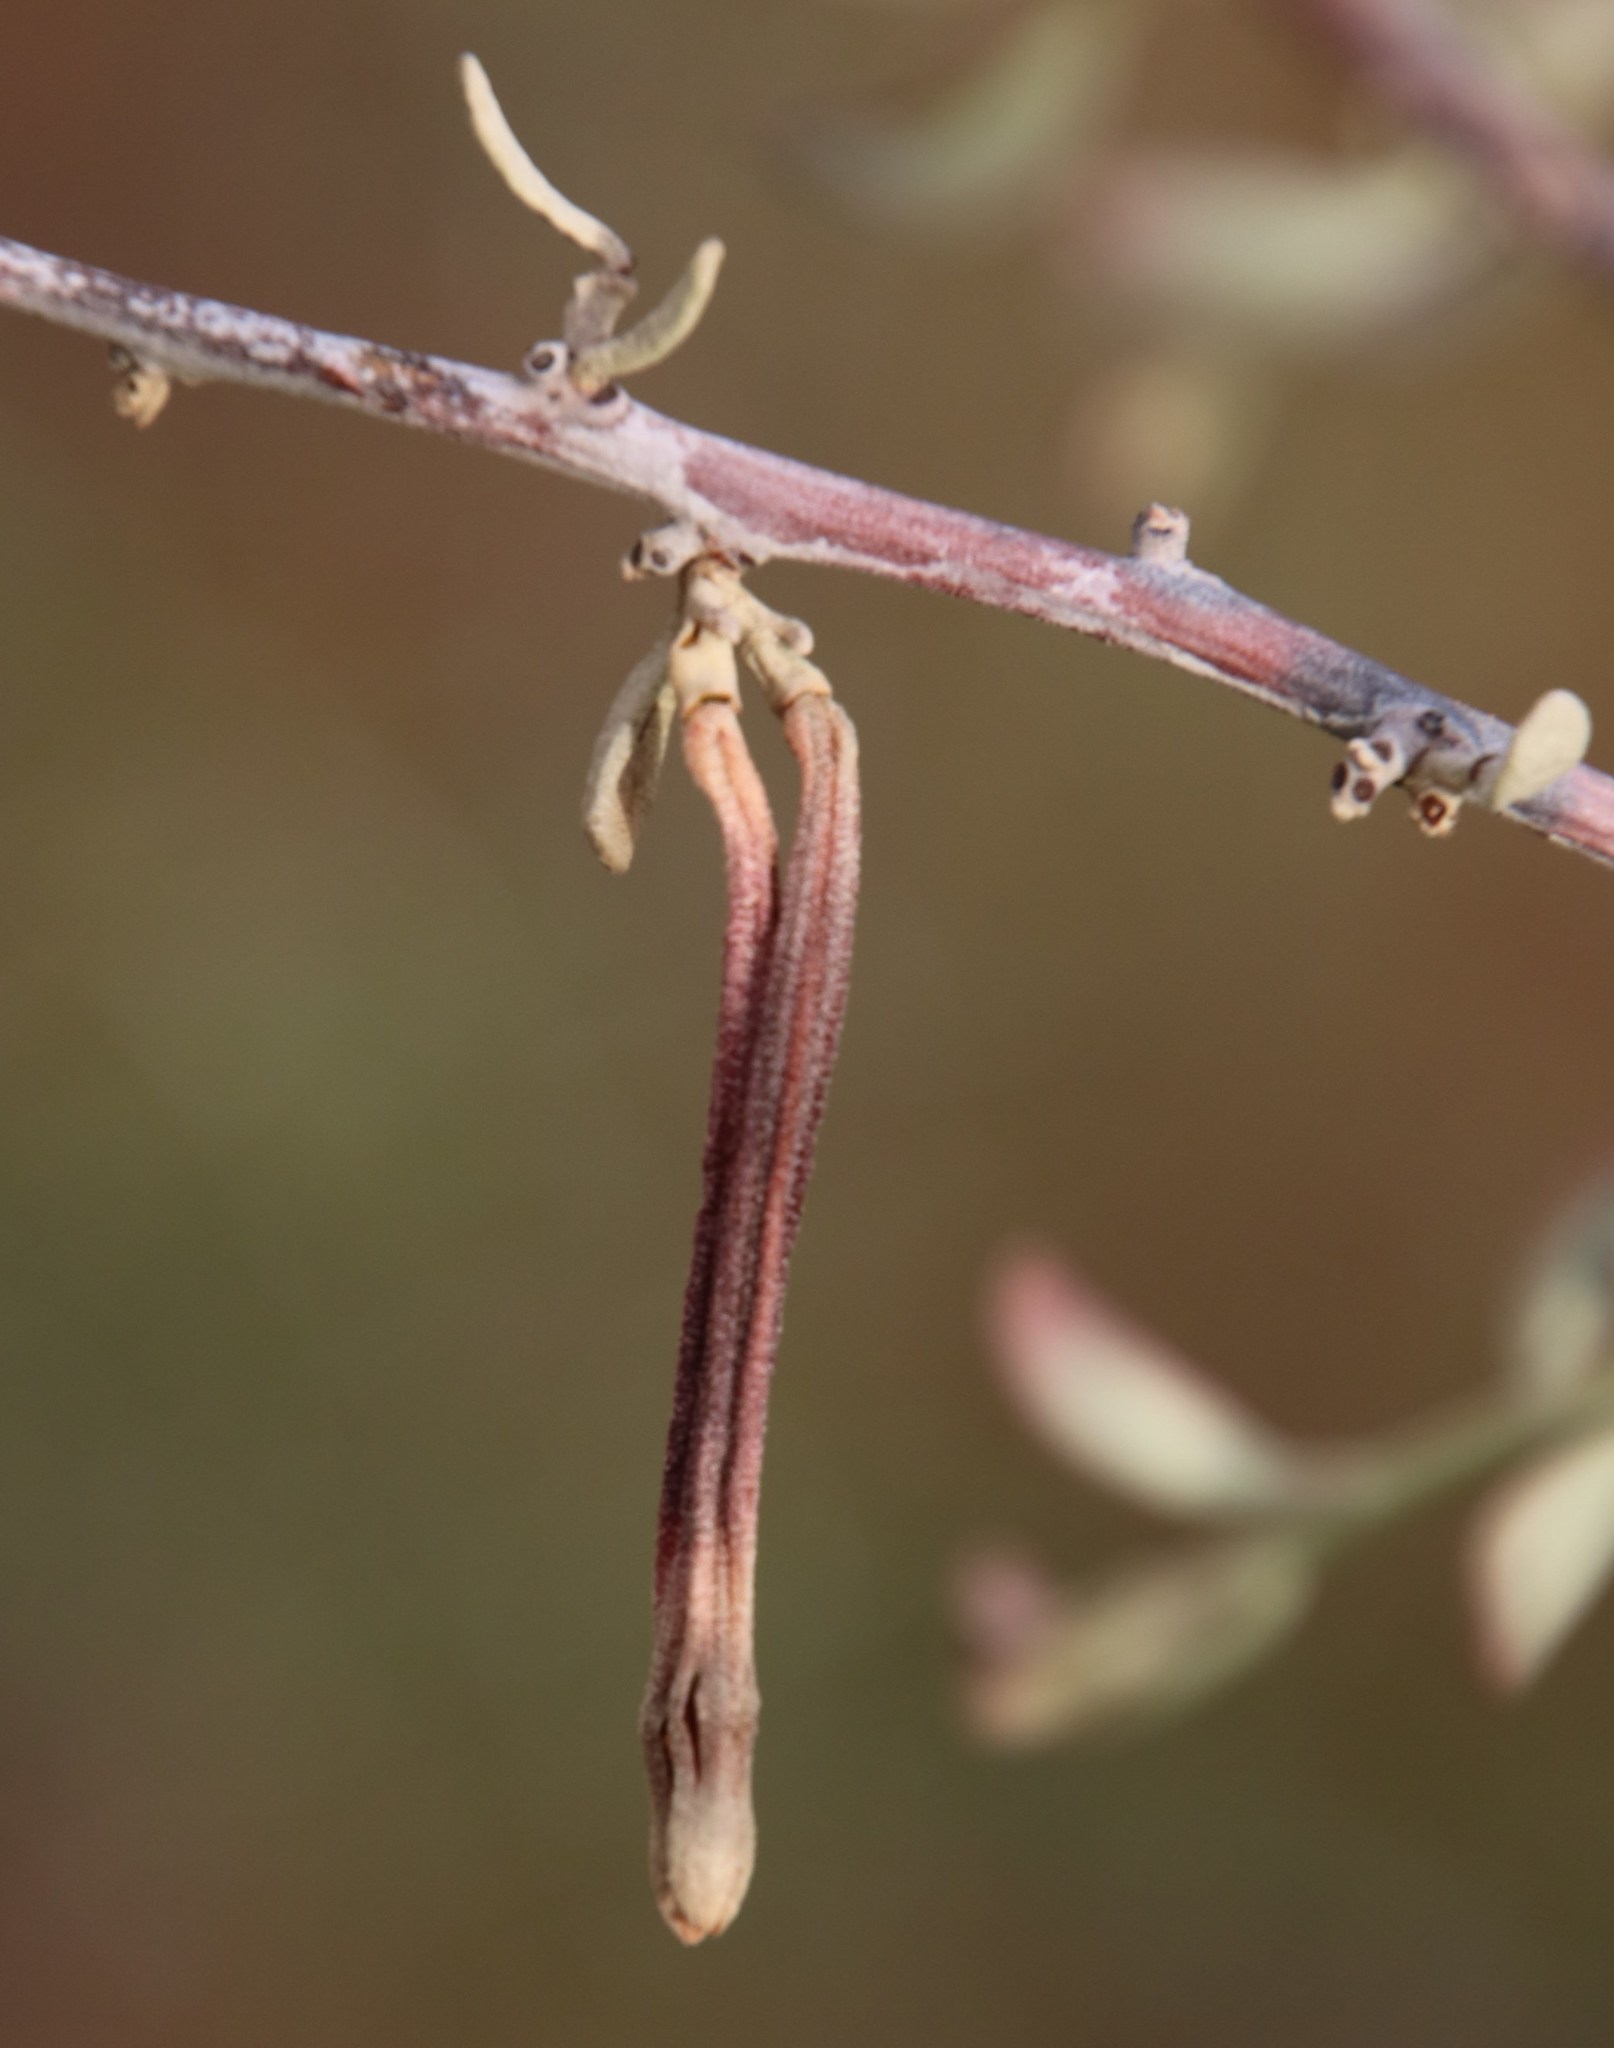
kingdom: Plantae
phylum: Tracheophyta
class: Magnoliopsida
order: Santalales
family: Loranthaceae
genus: Septulina
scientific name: Septulina glauca
